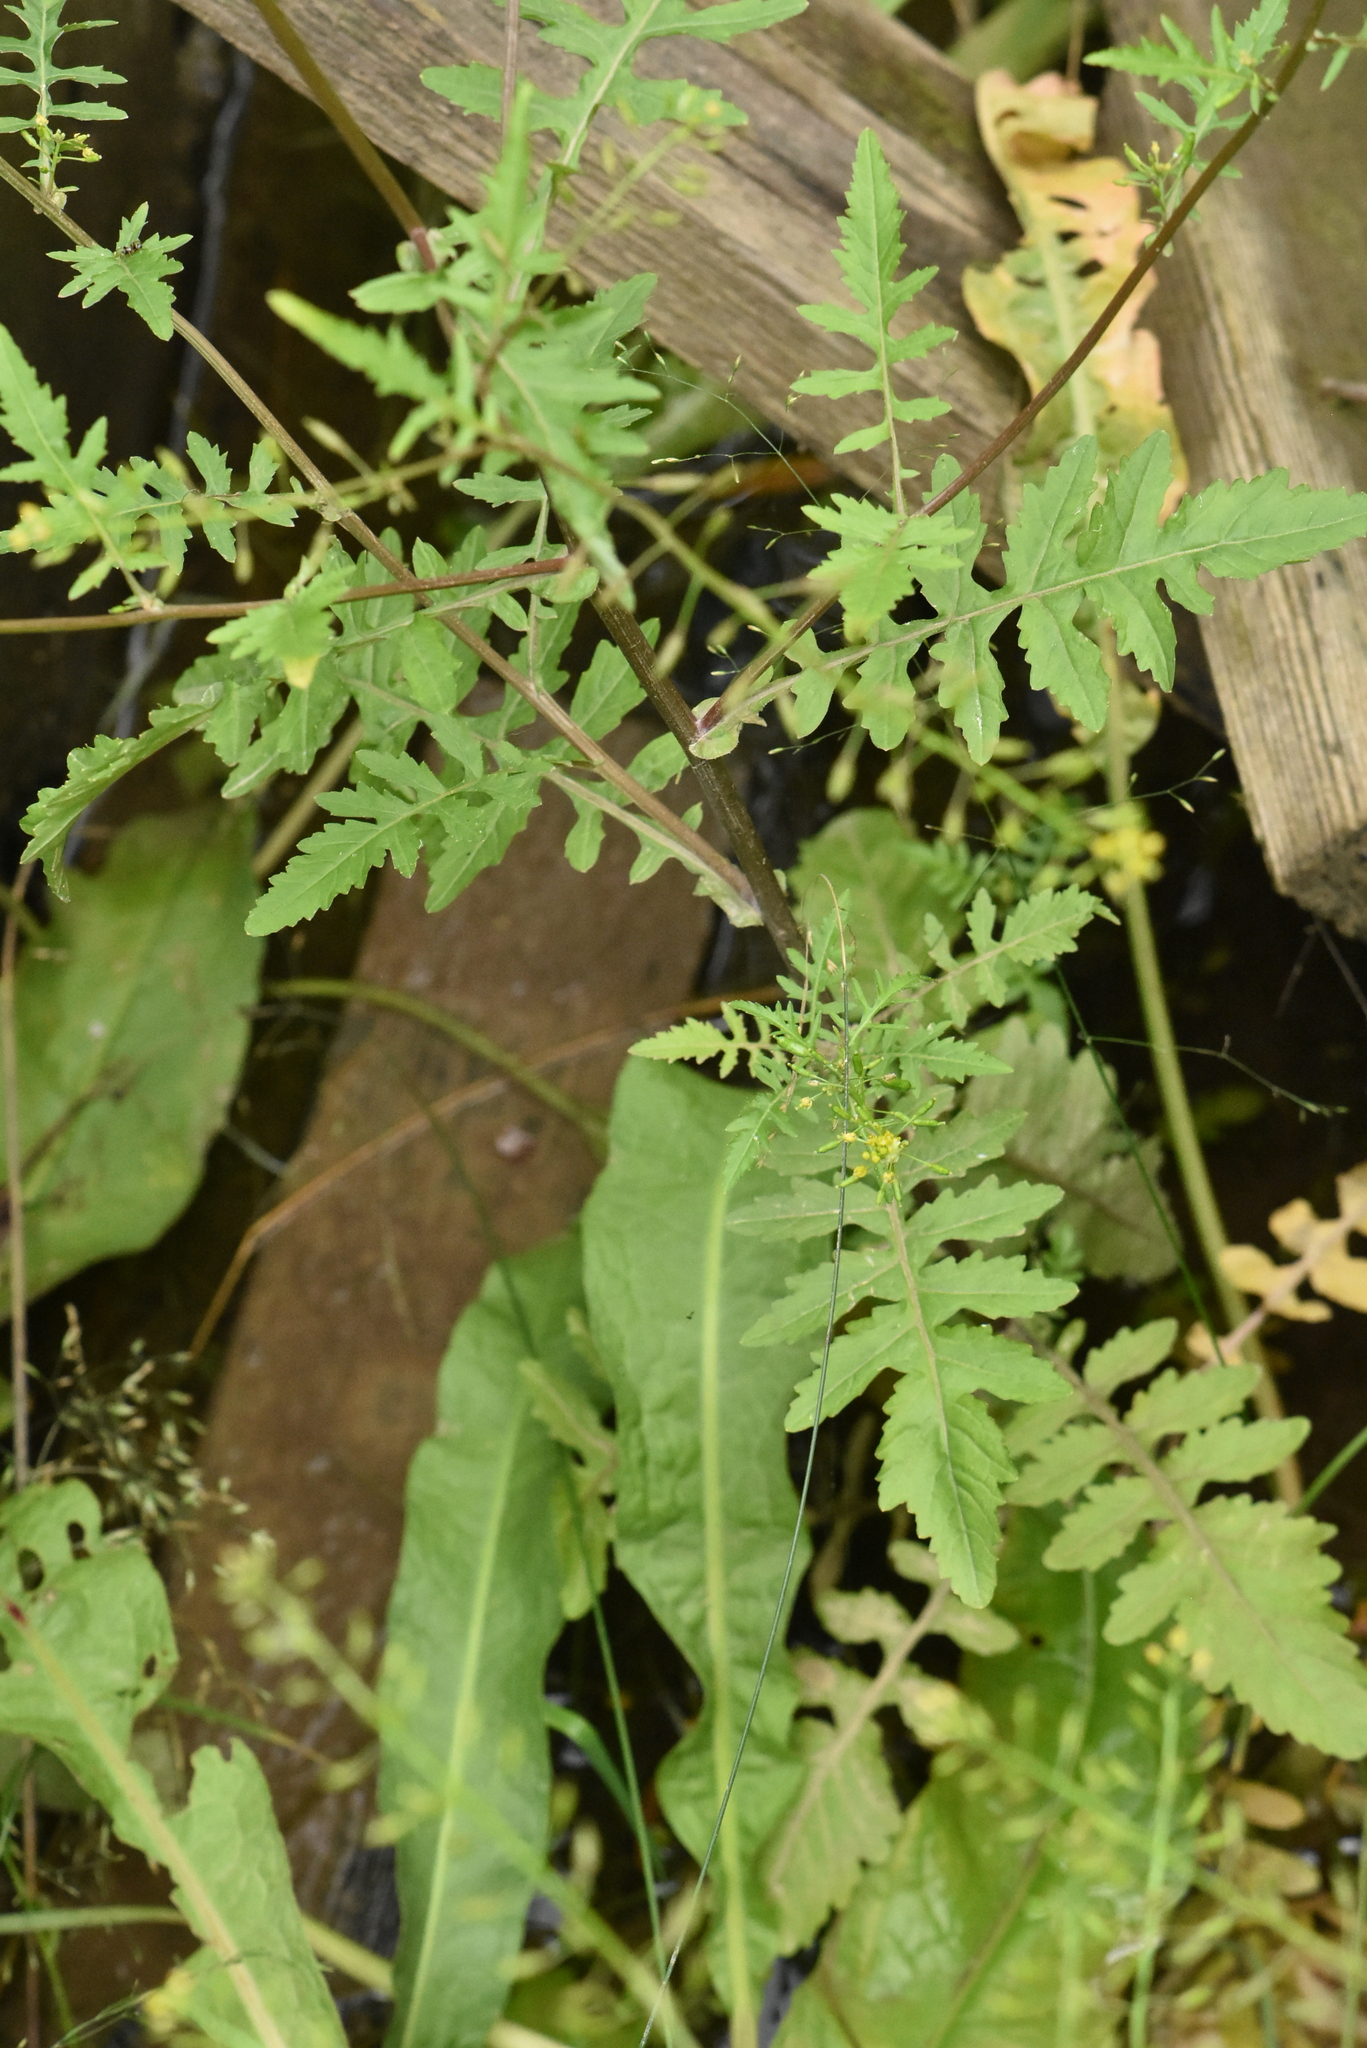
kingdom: Plantae
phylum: Tracheophyta
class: Magnoliopsida
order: Brassicales
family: Brassicaceae
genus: Rorippa
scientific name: Rorippa palustris
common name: Marsh yellow-cress
